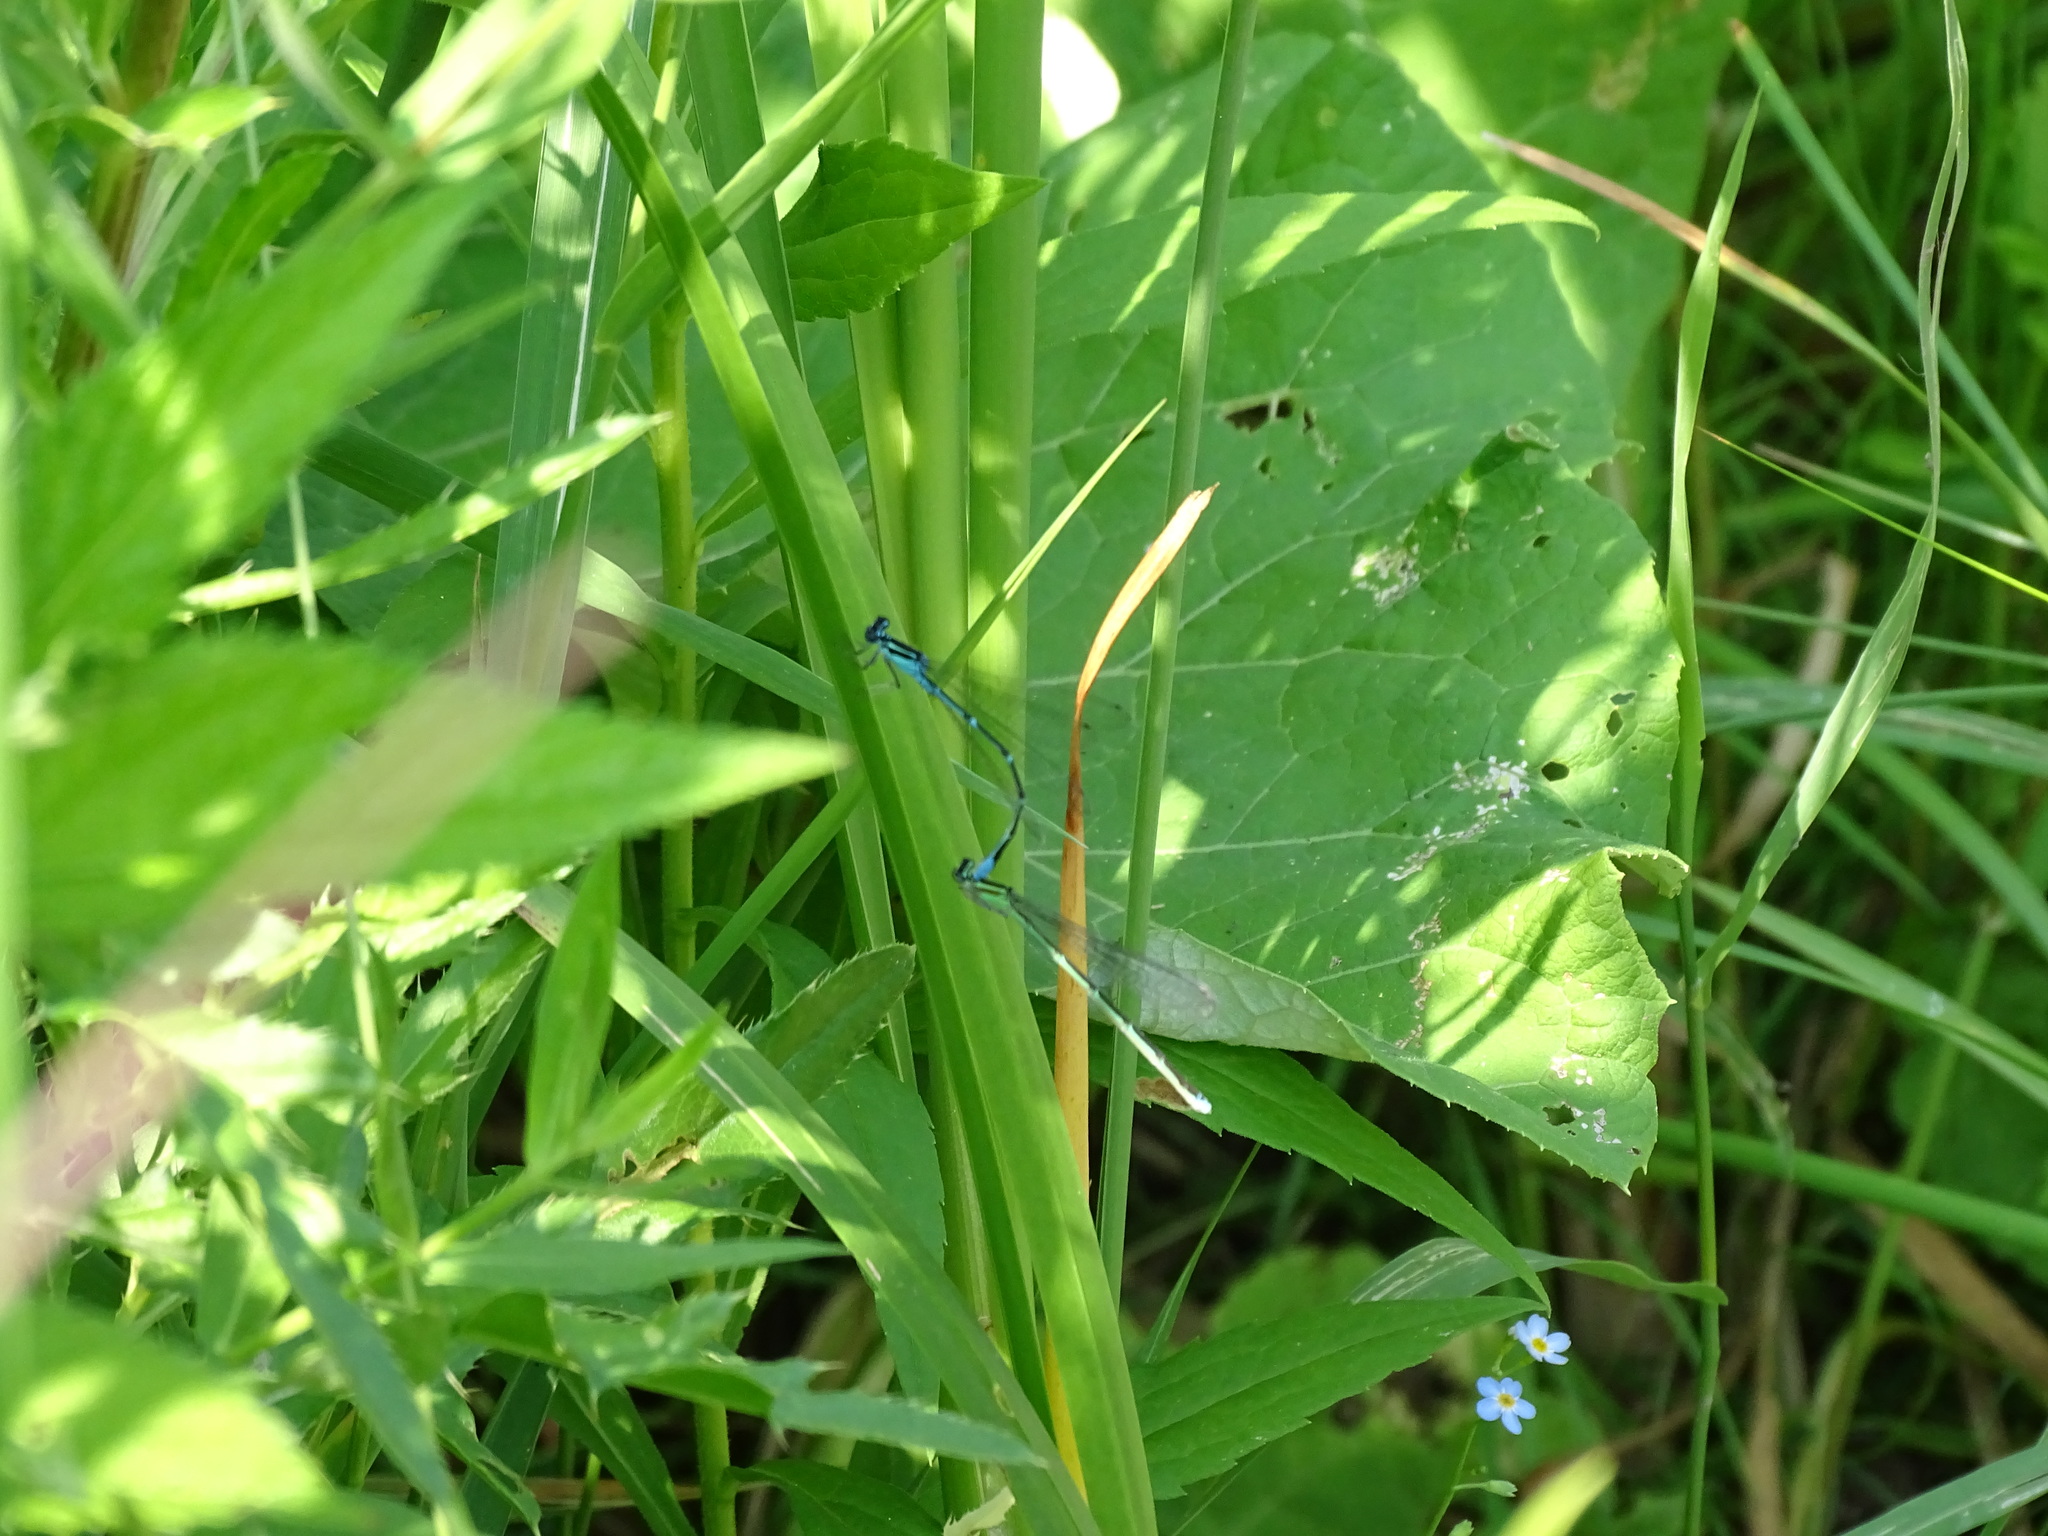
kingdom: Animalia
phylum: Arthropoda
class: Insecta
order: Odonata
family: Coenagrionidae
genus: Enallagma
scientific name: Enallagma exsulans
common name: Stream bluet
